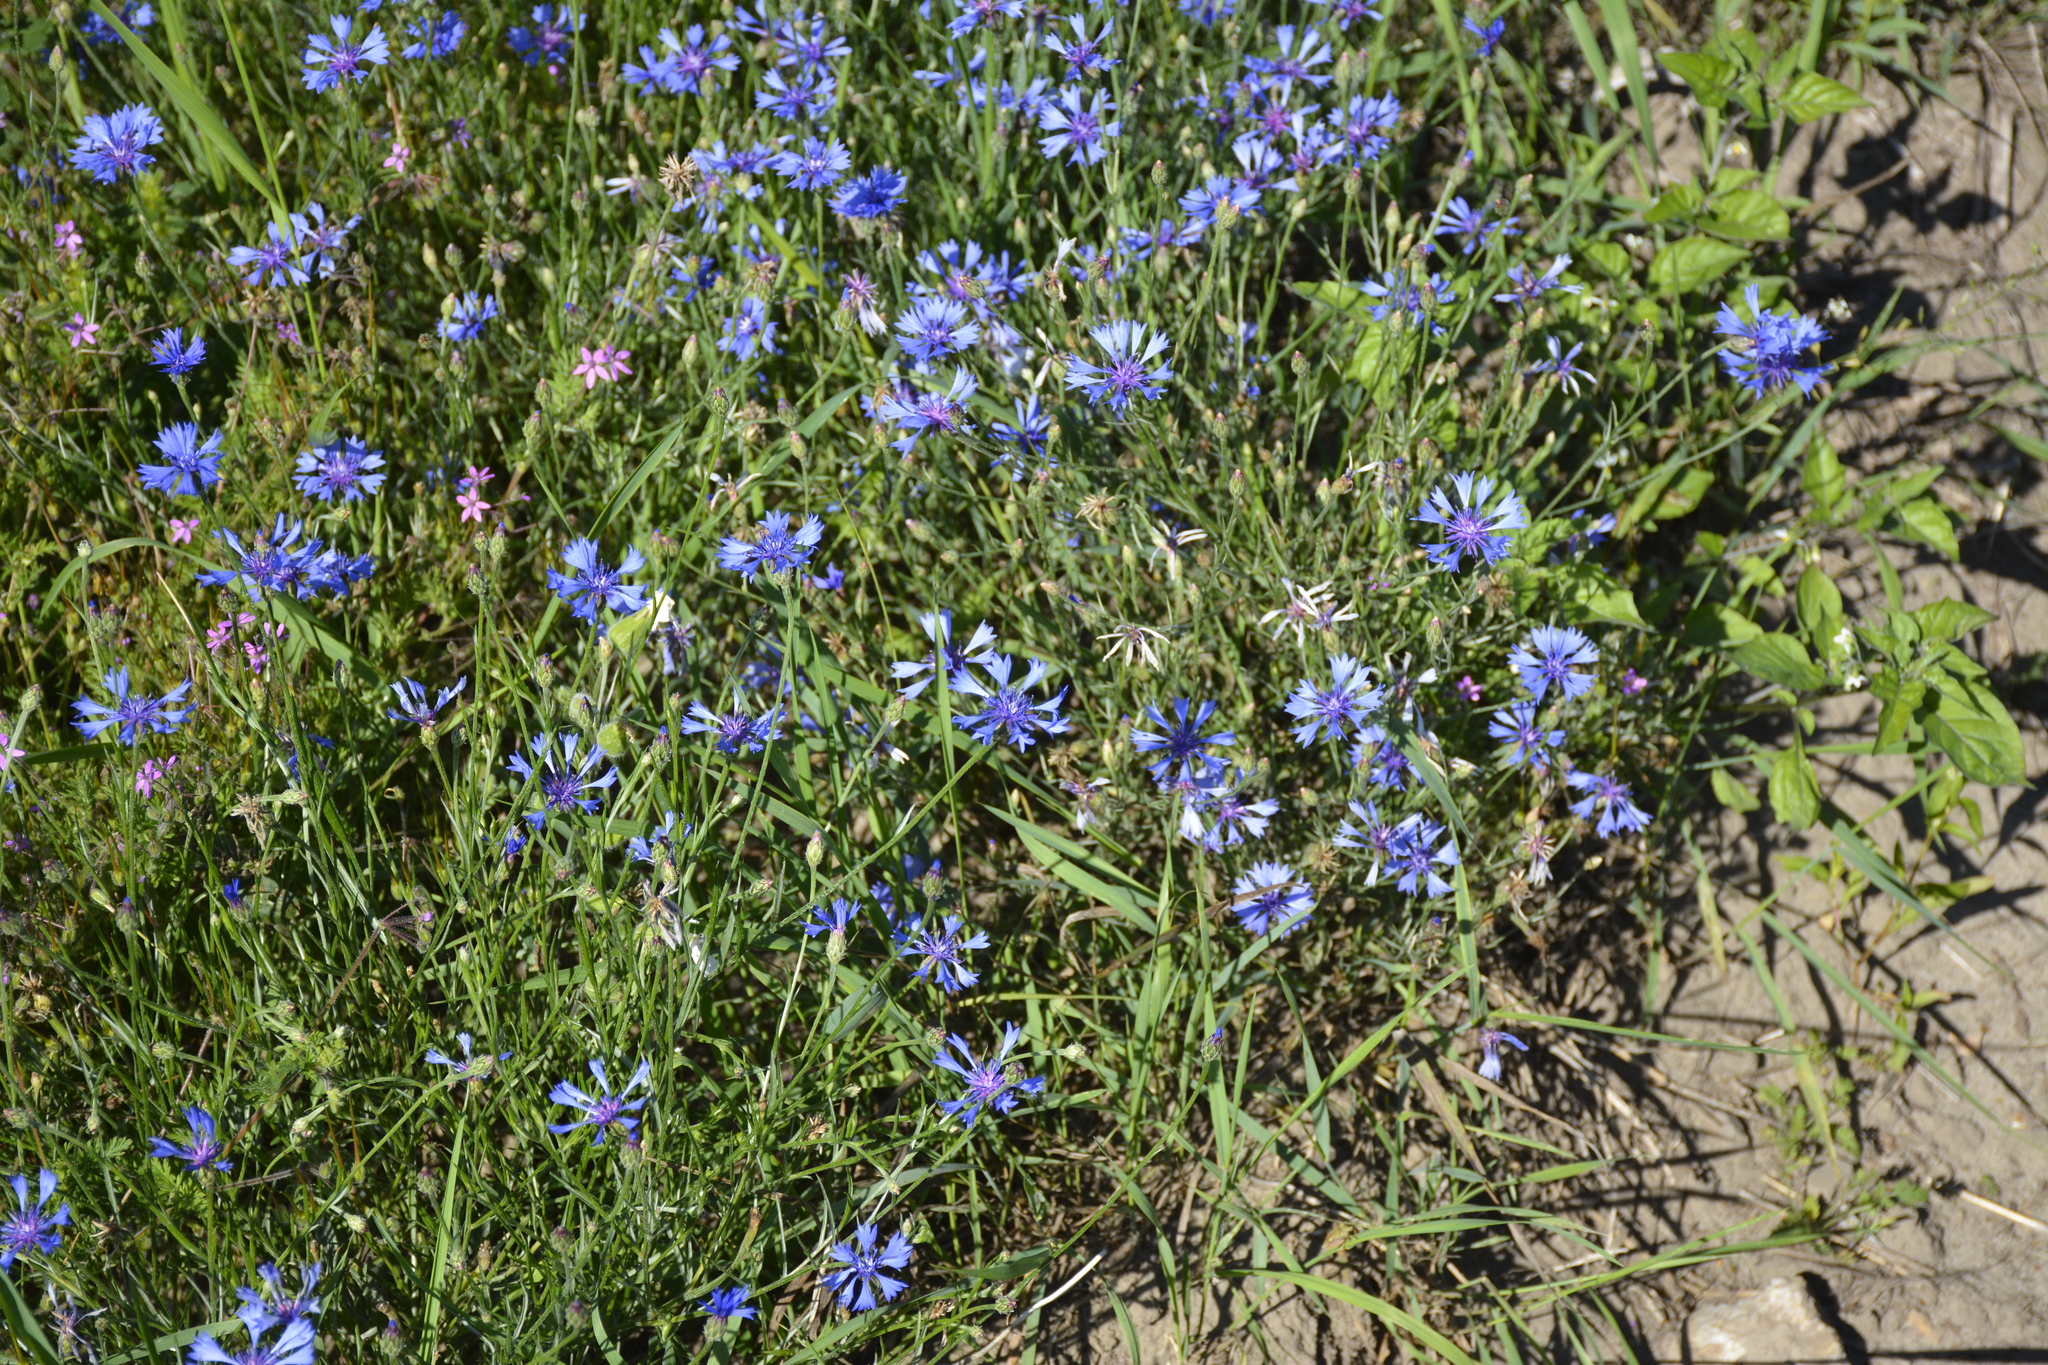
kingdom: Plantae
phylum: Tracheophyta
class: Magnoliopsida
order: Asterales
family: Asteraceae
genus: Centaurea
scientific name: Centaurea cyanus
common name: Cornflower
